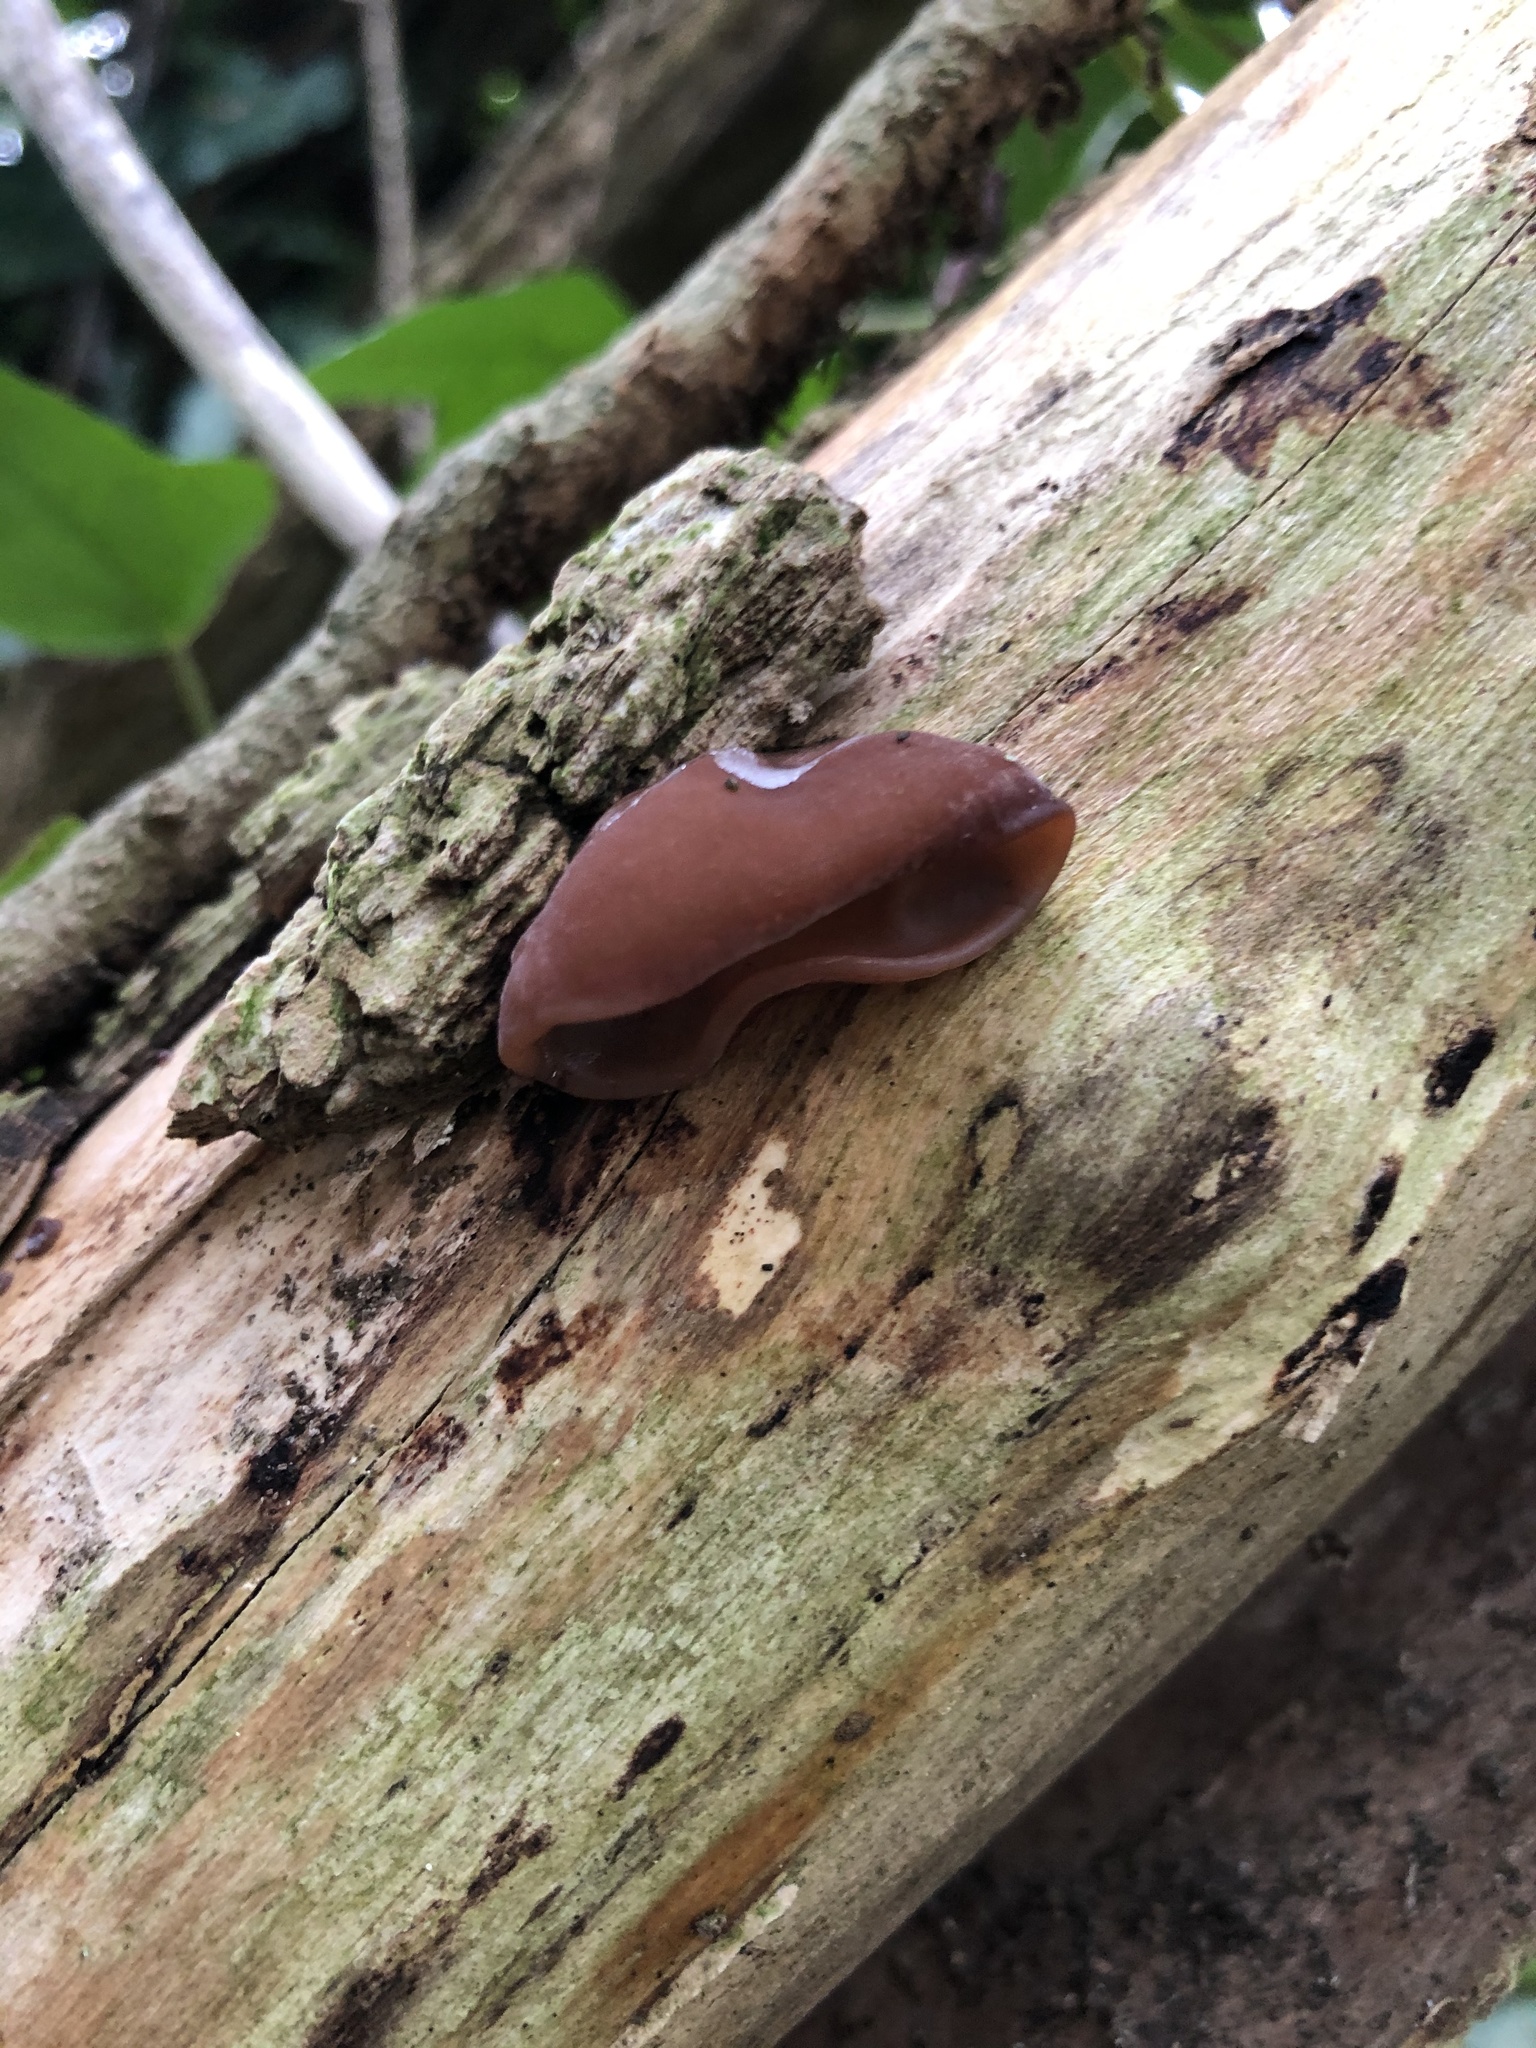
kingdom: Fungi
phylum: Basidiomycota
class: Agaricomycetes
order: Auriculariales
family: Auriculariaceae
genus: Auricularia
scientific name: Auricularia auricula-judae
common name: Jelly ear
